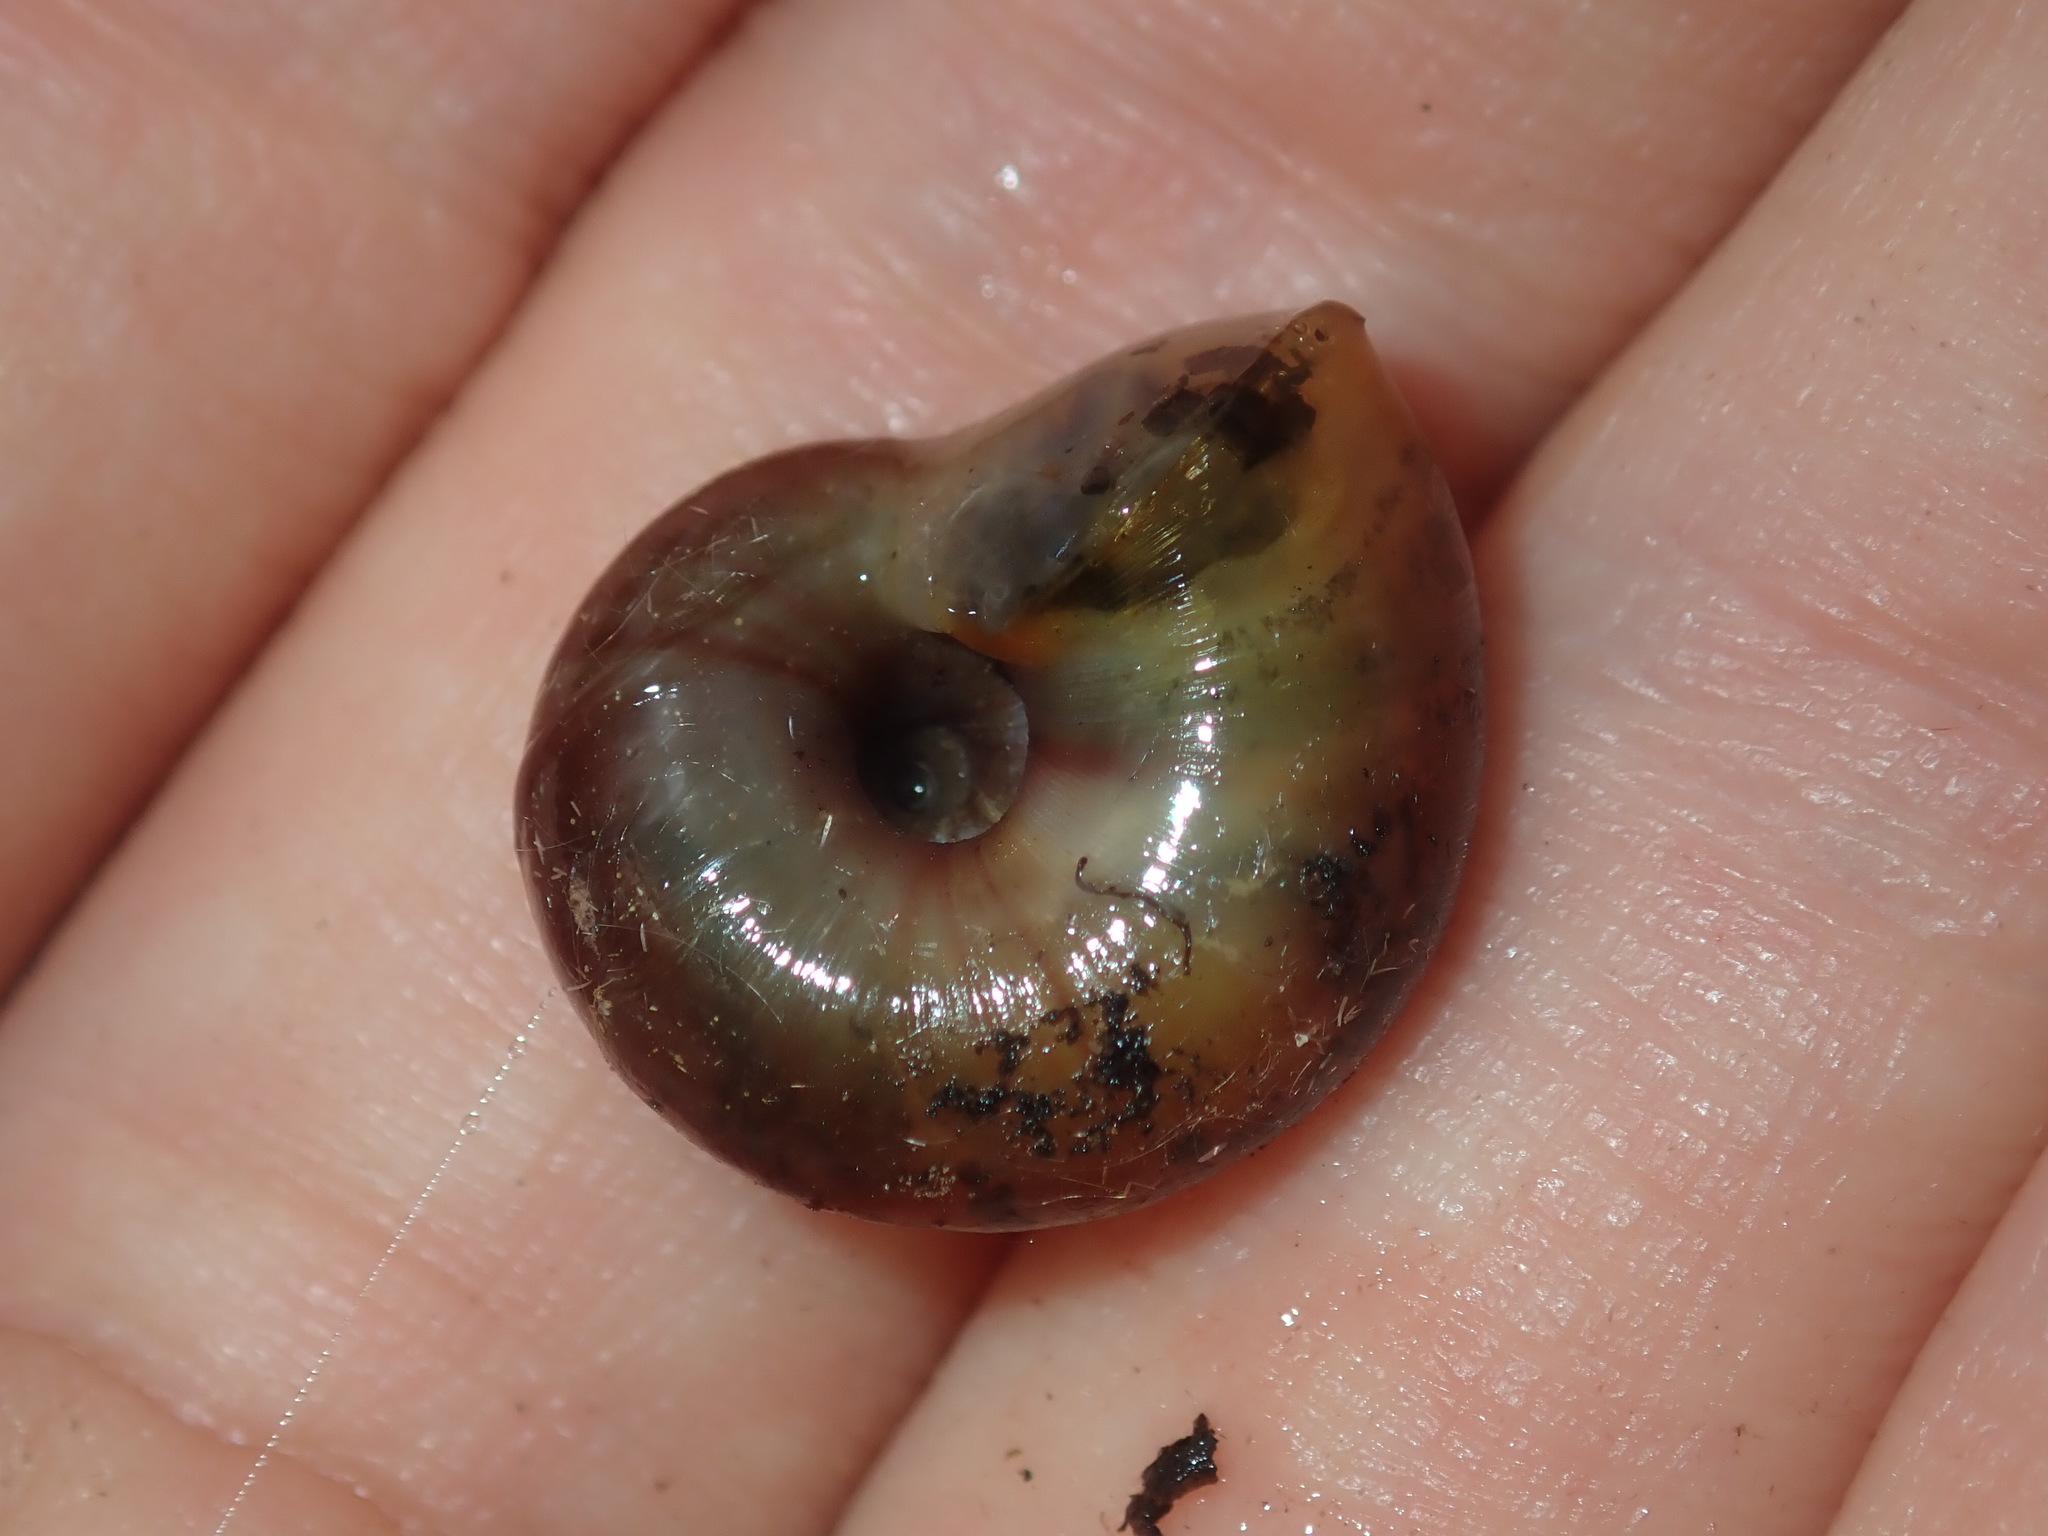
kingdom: Animalia
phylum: Mollusca
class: Gastropoda
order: Stylommatophora
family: Rhytididae
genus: Austrorhytida
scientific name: Austrorhytida capillacea
